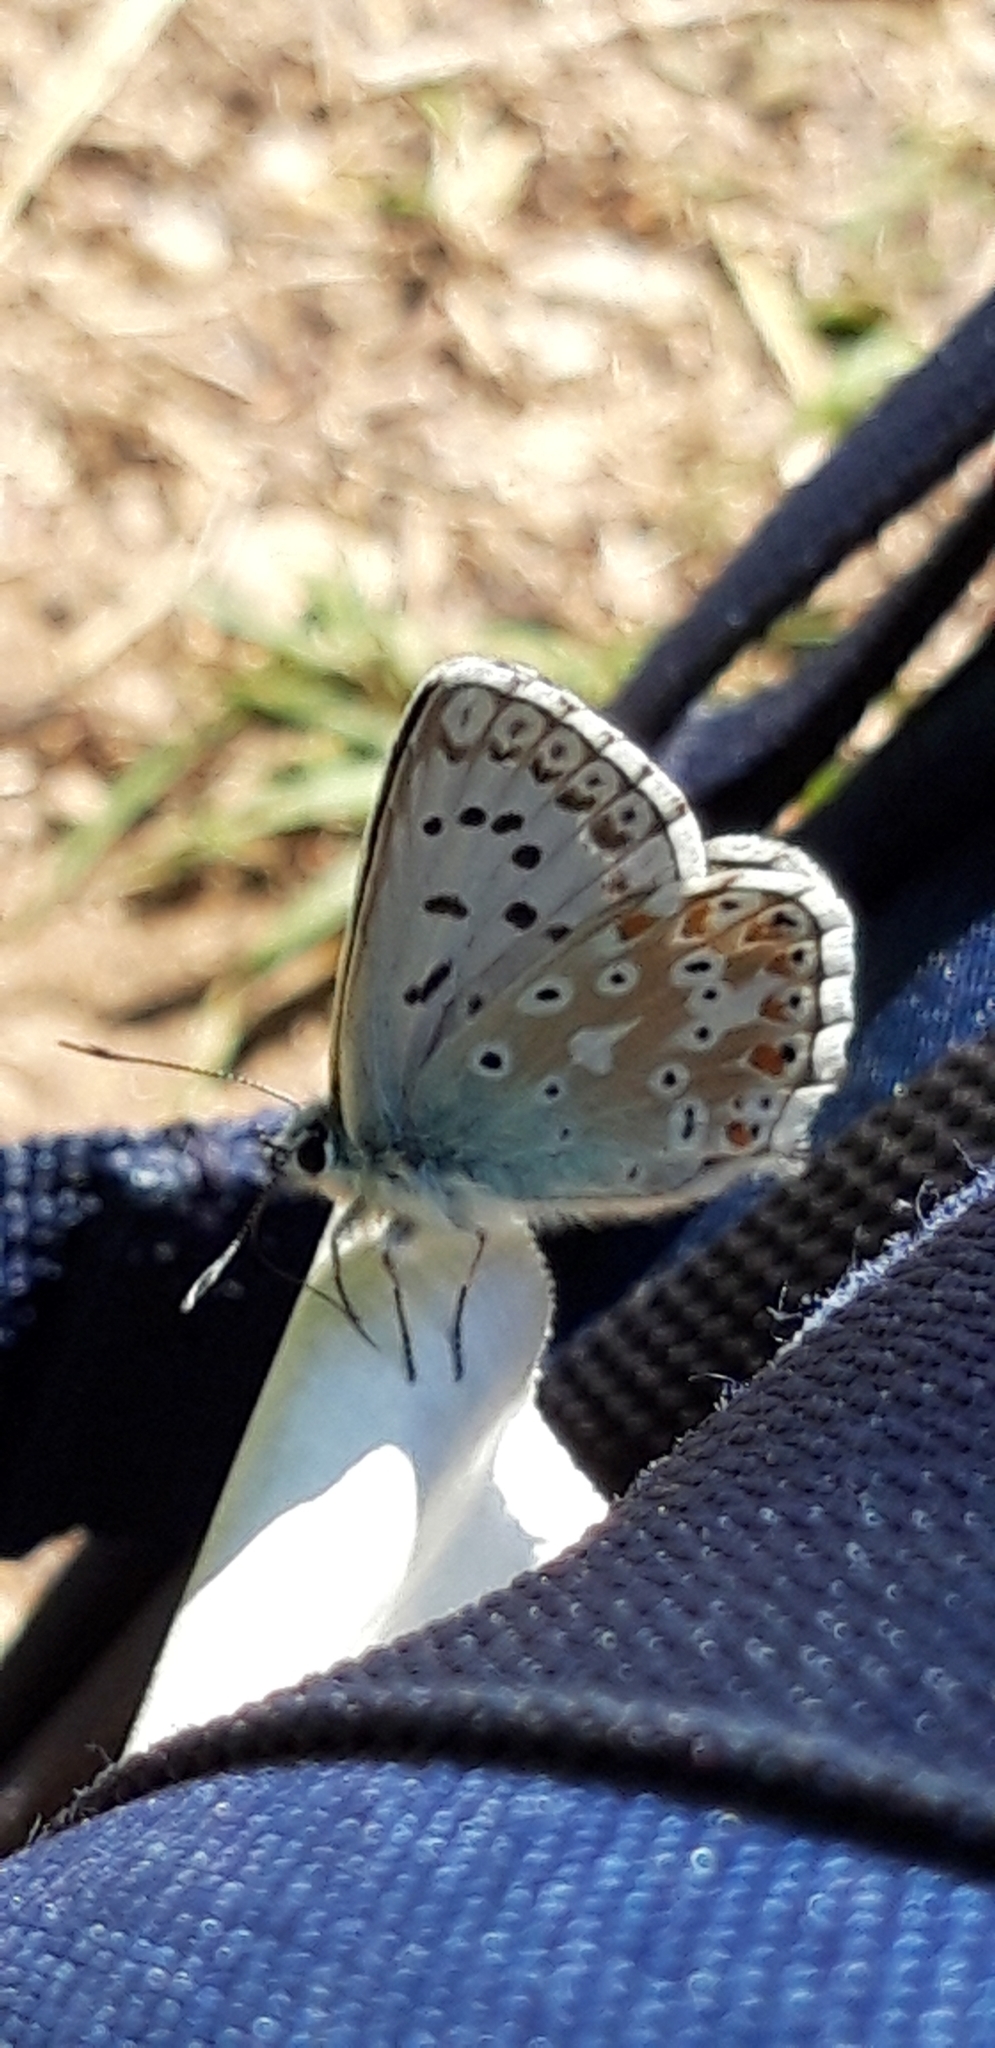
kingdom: Animalia
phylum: Arthropoda
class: Insecta
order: Lepidoptera
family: Lycaenidae
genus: Lysandra
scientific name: Lysandra coridon
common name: Chalkhill blue
